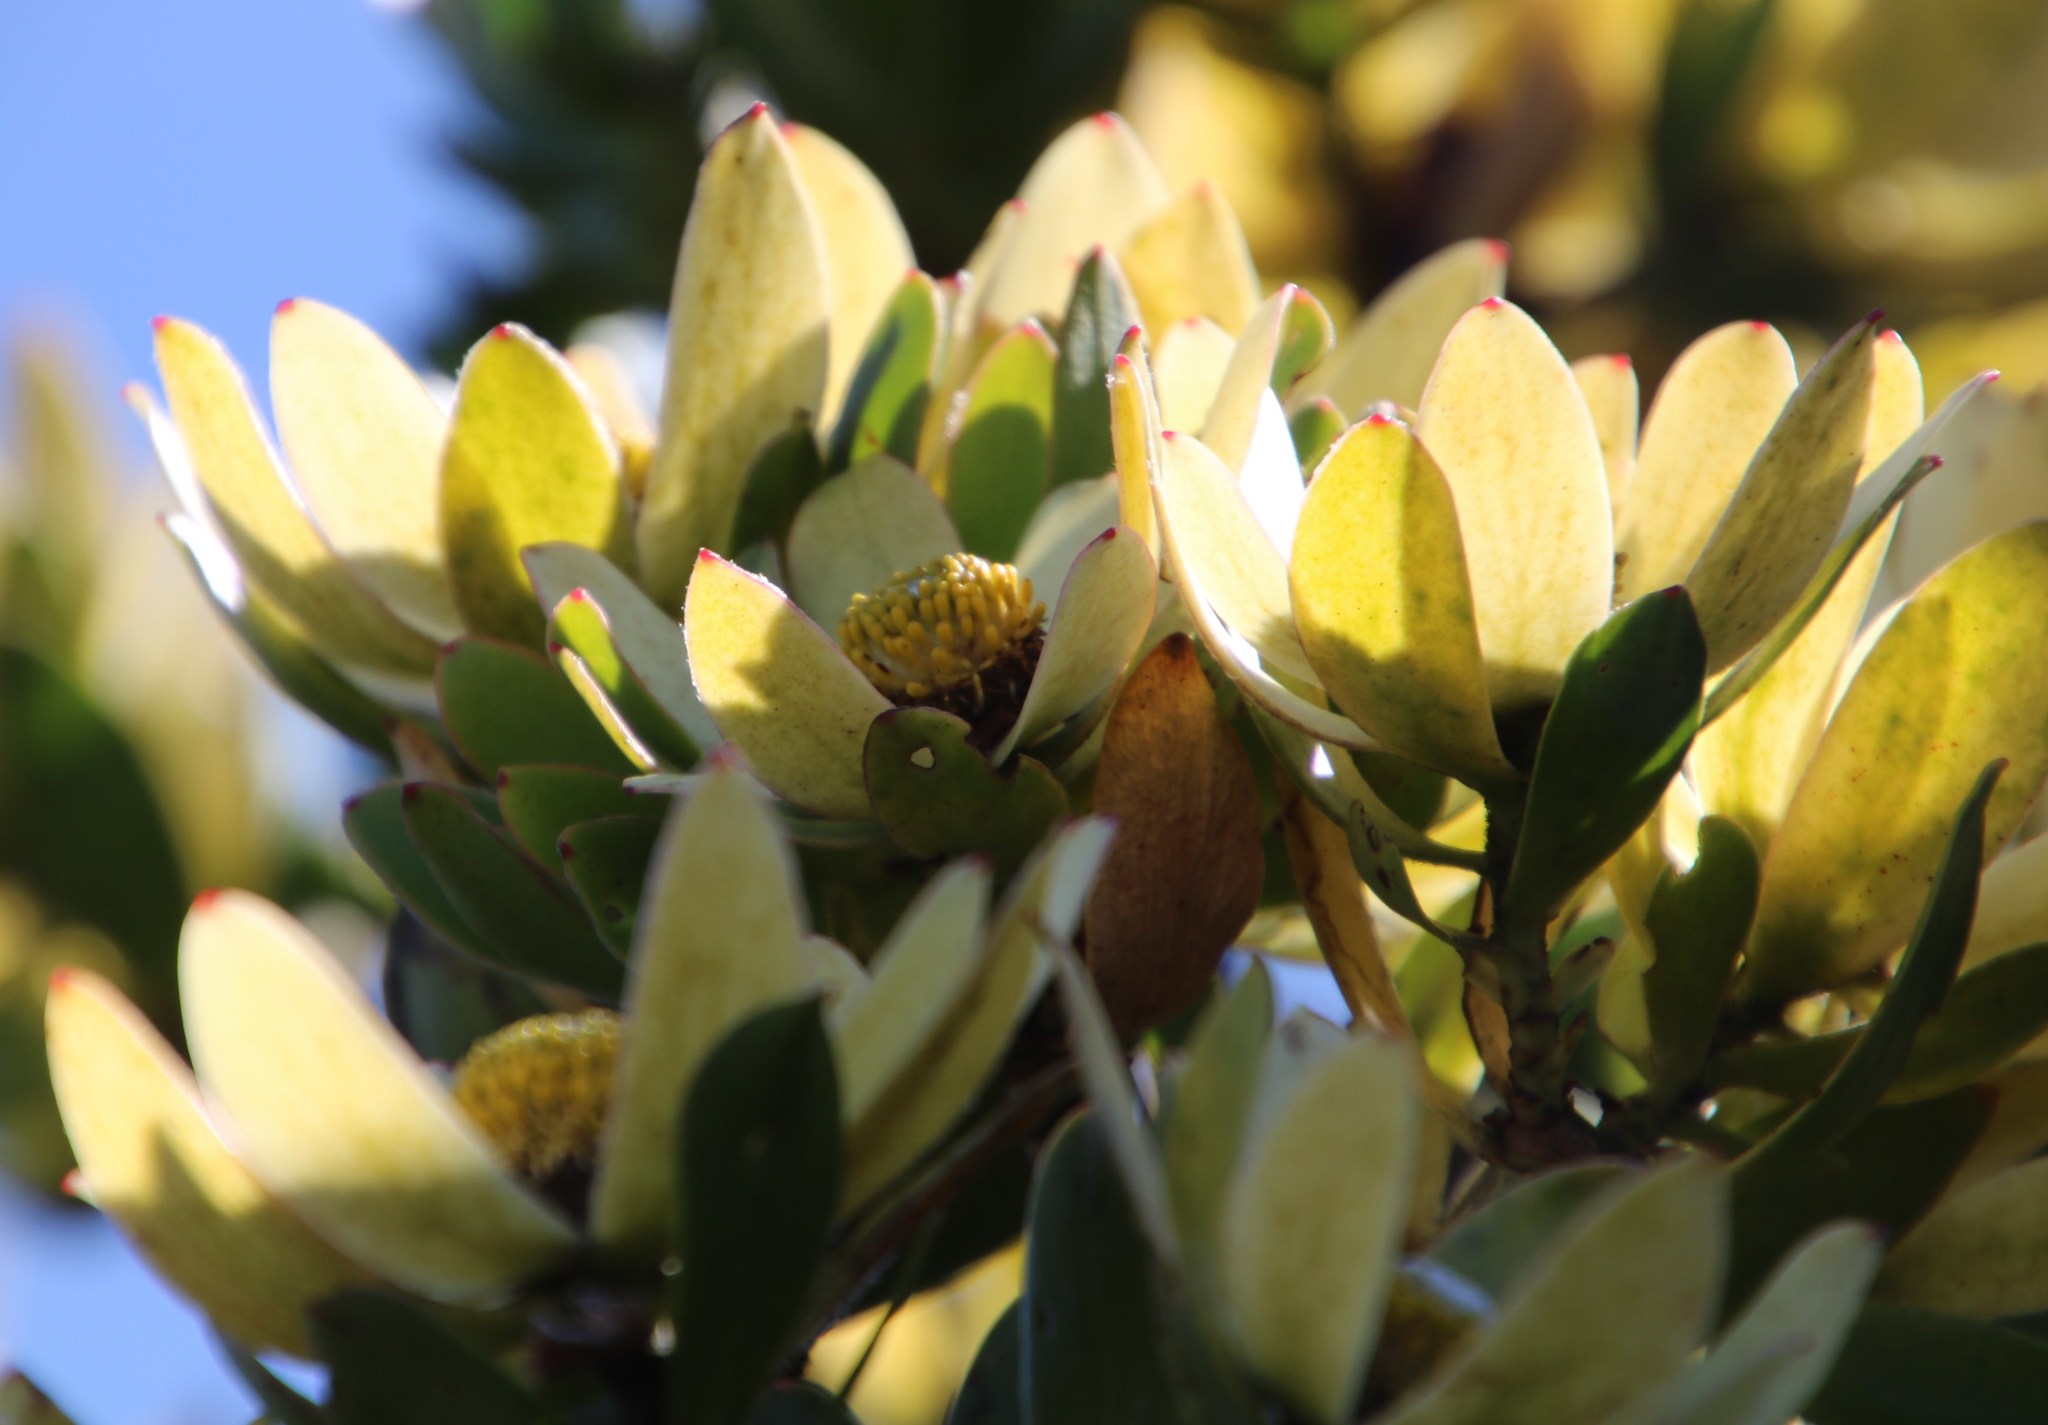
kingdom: Plantae
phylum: Tracheophyta
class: Magnoliopsida
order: Proteales
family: Proteaceae
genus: Leucadendron
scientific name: Leucadendron strobilinum
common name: Mountain rose
